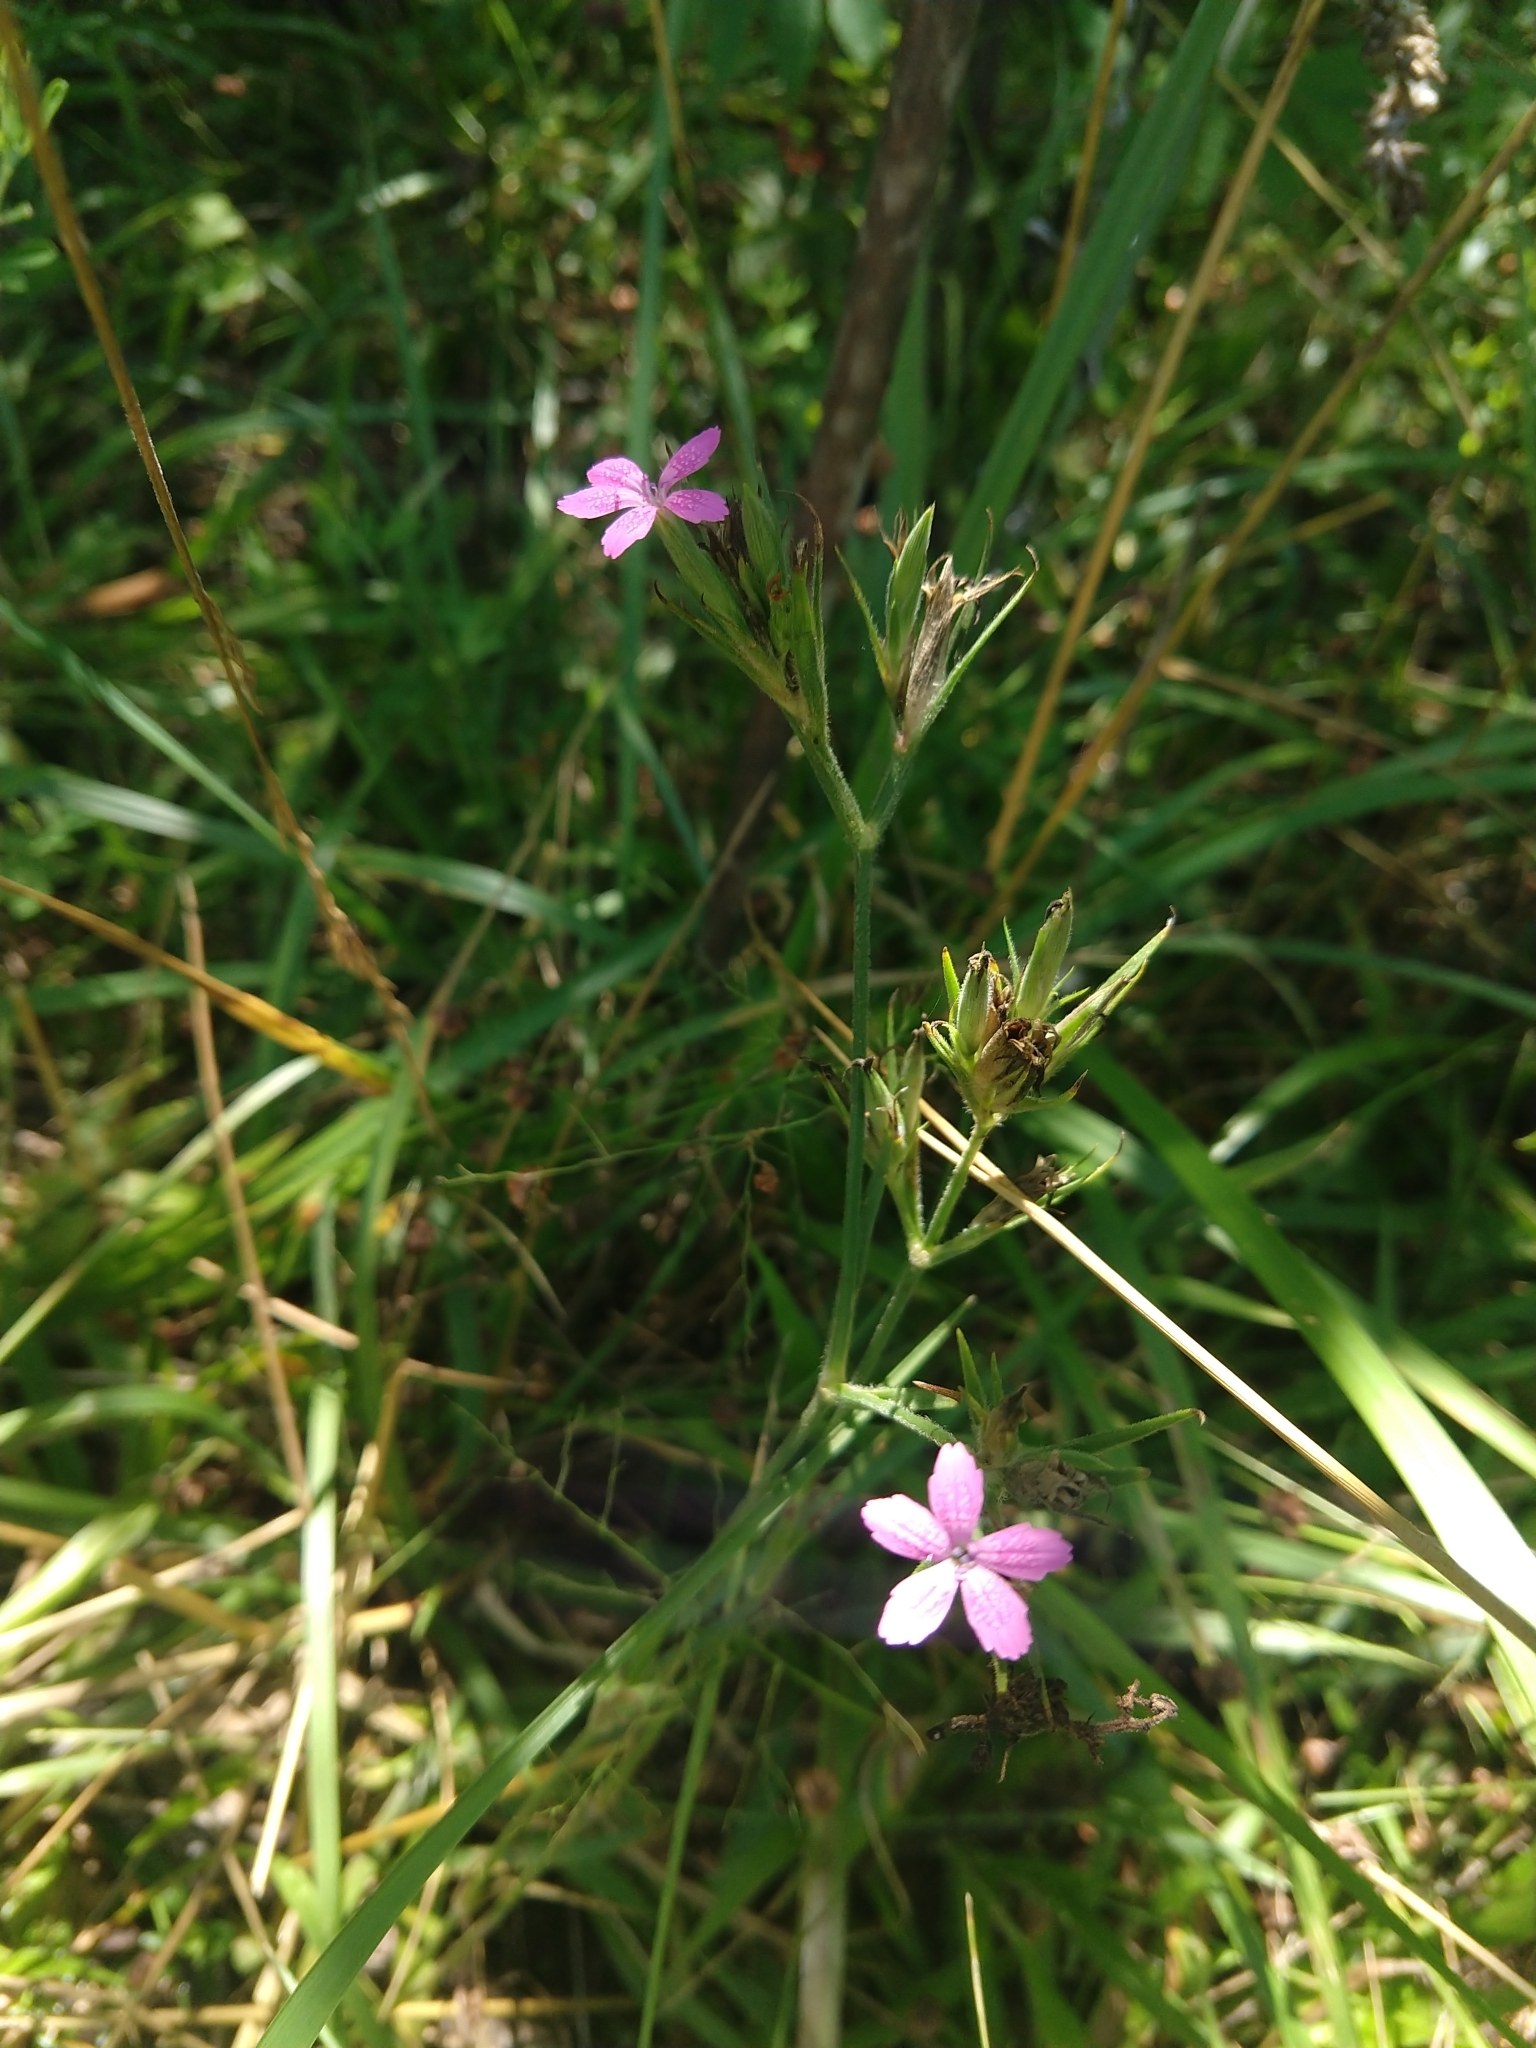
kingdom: Plantae
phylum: Tracheophyta
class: Magnoliopsida
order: Caryophyllales
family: Caryophyllaceae
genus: Dianthus
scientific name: Dianthus armeria
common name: Deptford pink
